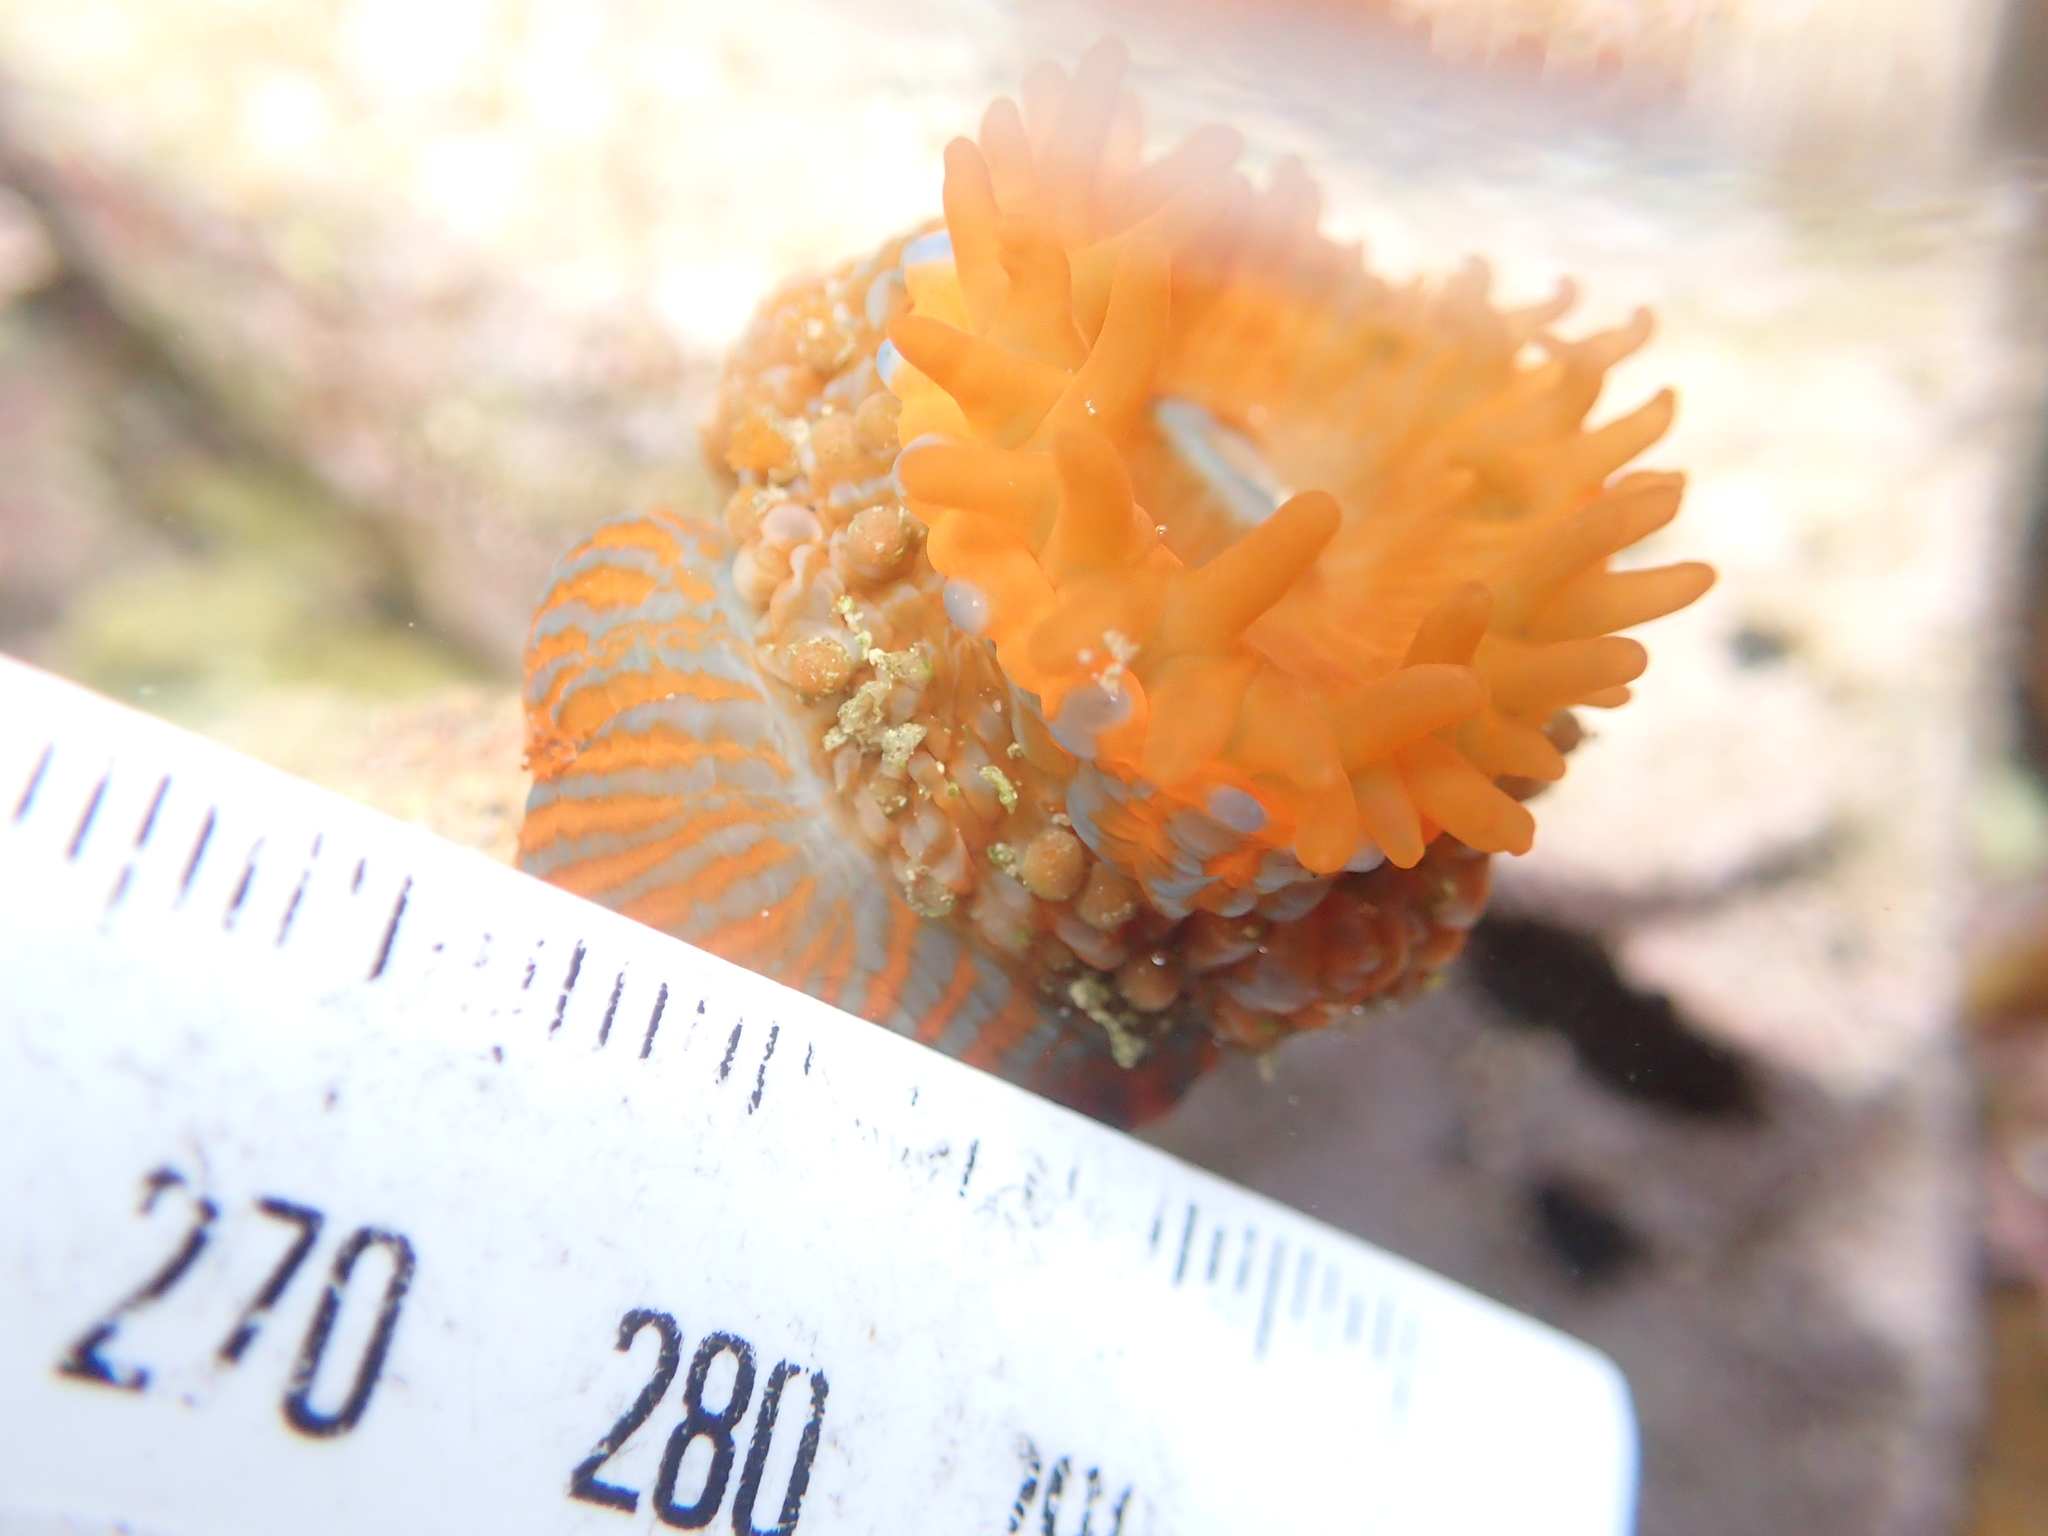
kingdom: Animalia
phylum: Cnidaria
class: Anthozoa
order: Actiniaria
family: Actiniidae
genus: Epiactis
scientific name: Epiactis
